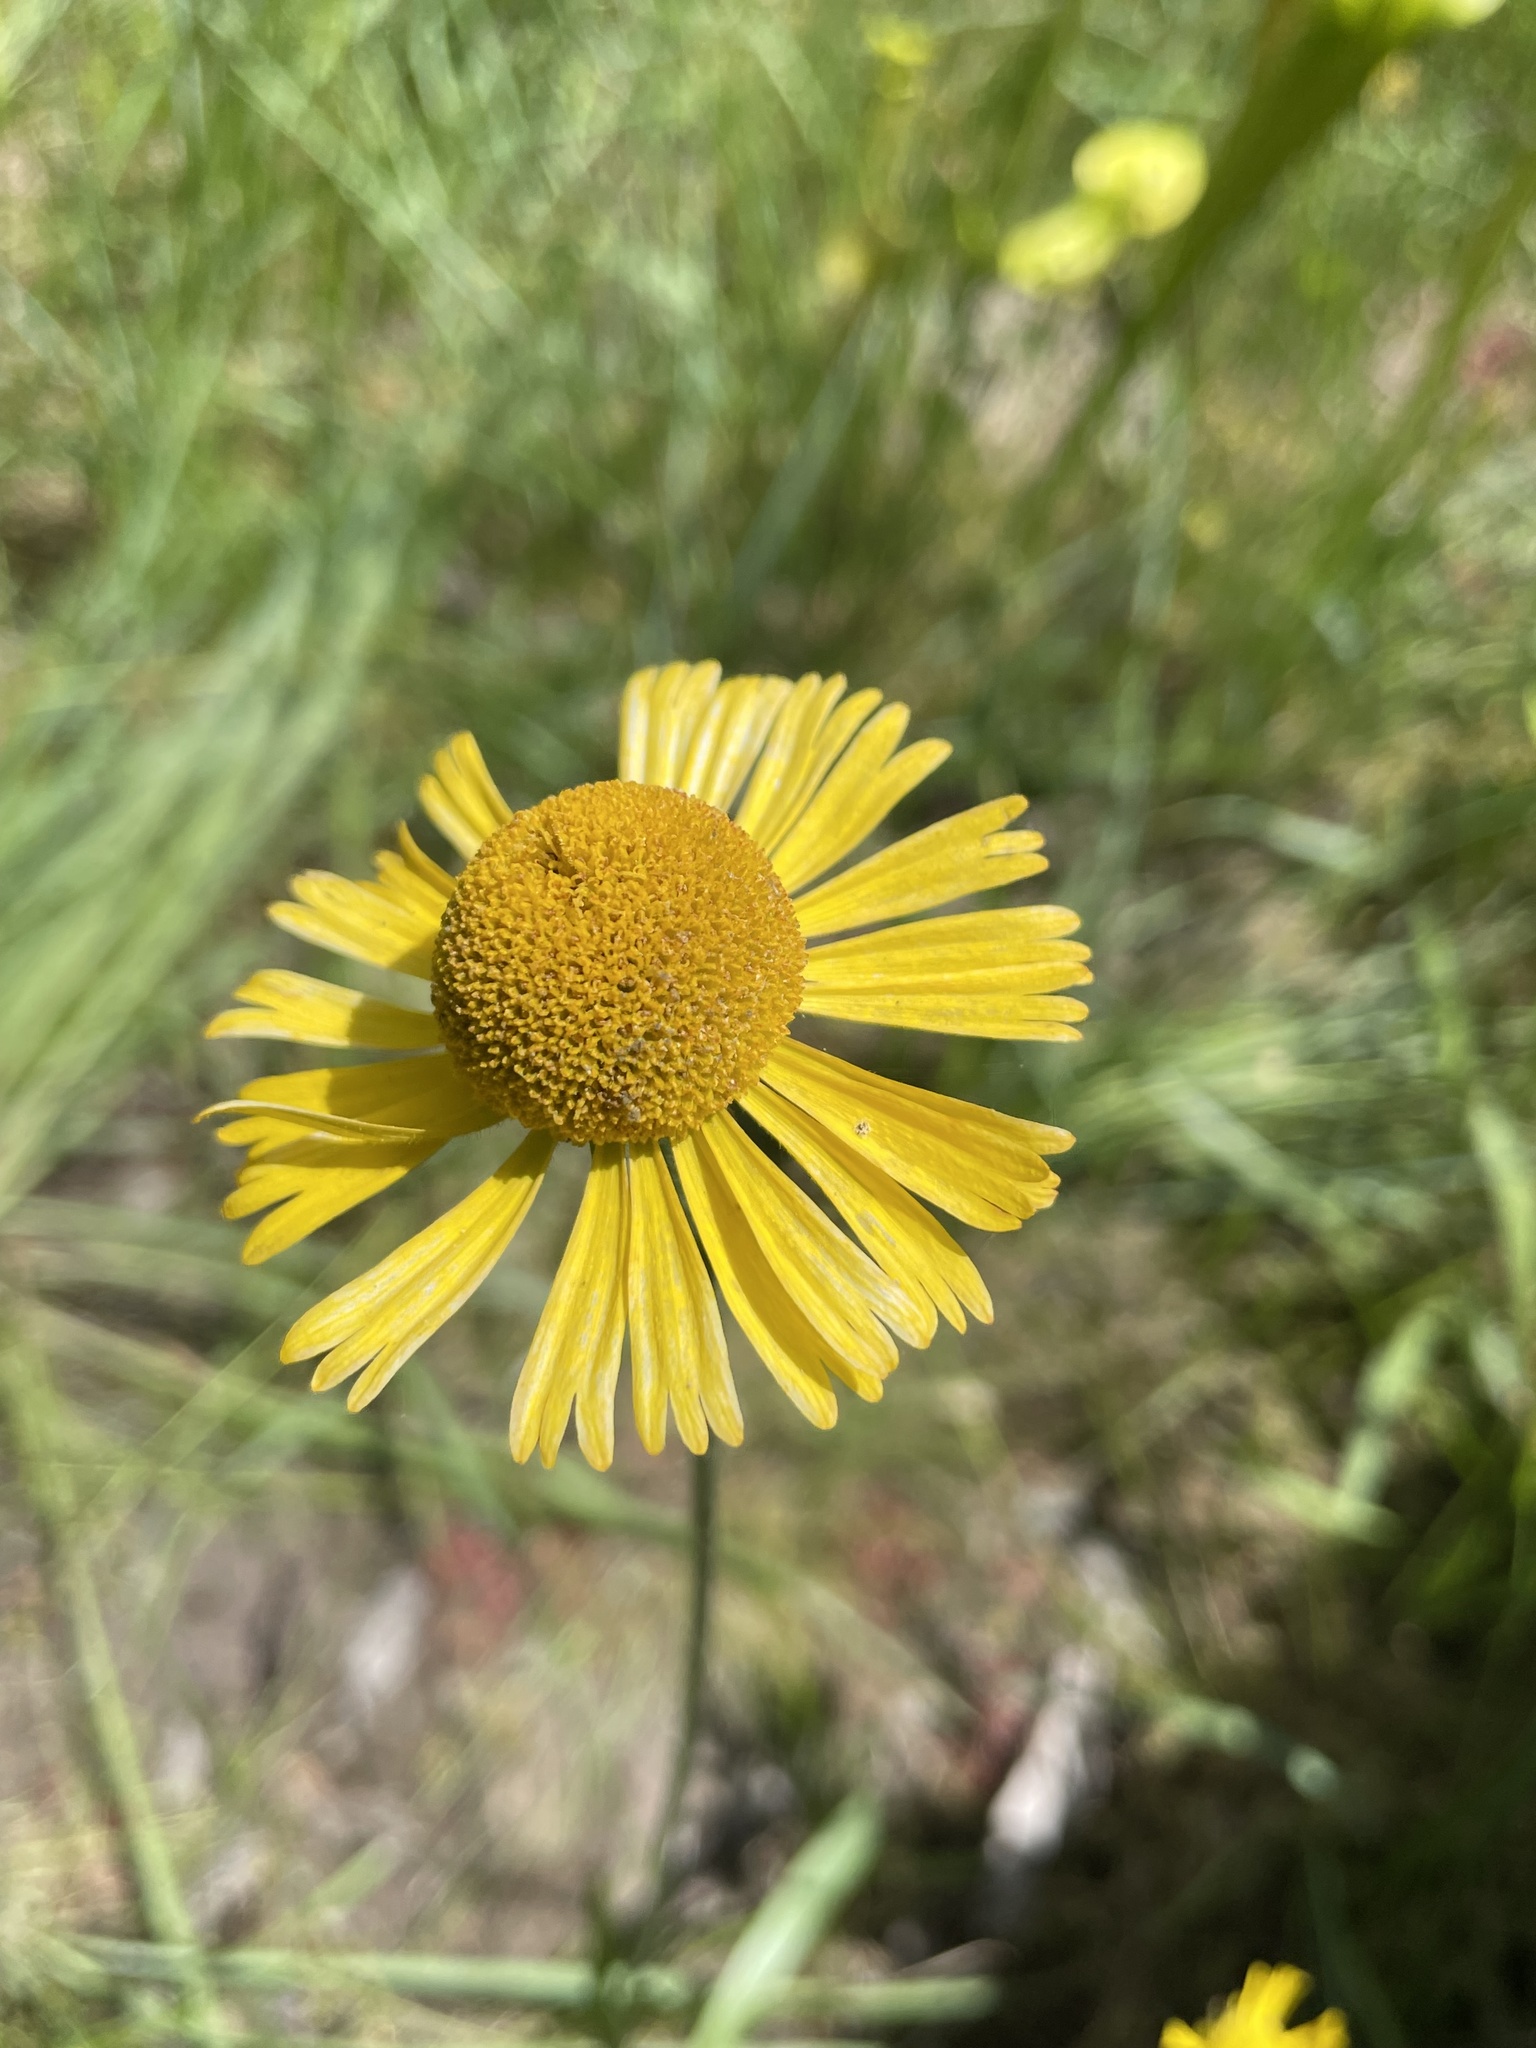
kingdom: Plantae
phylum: Tracheophyta
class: Magnoliopsida
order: Asterales
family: Asteraceae
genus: Helenium
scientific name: Helenium drummondii
